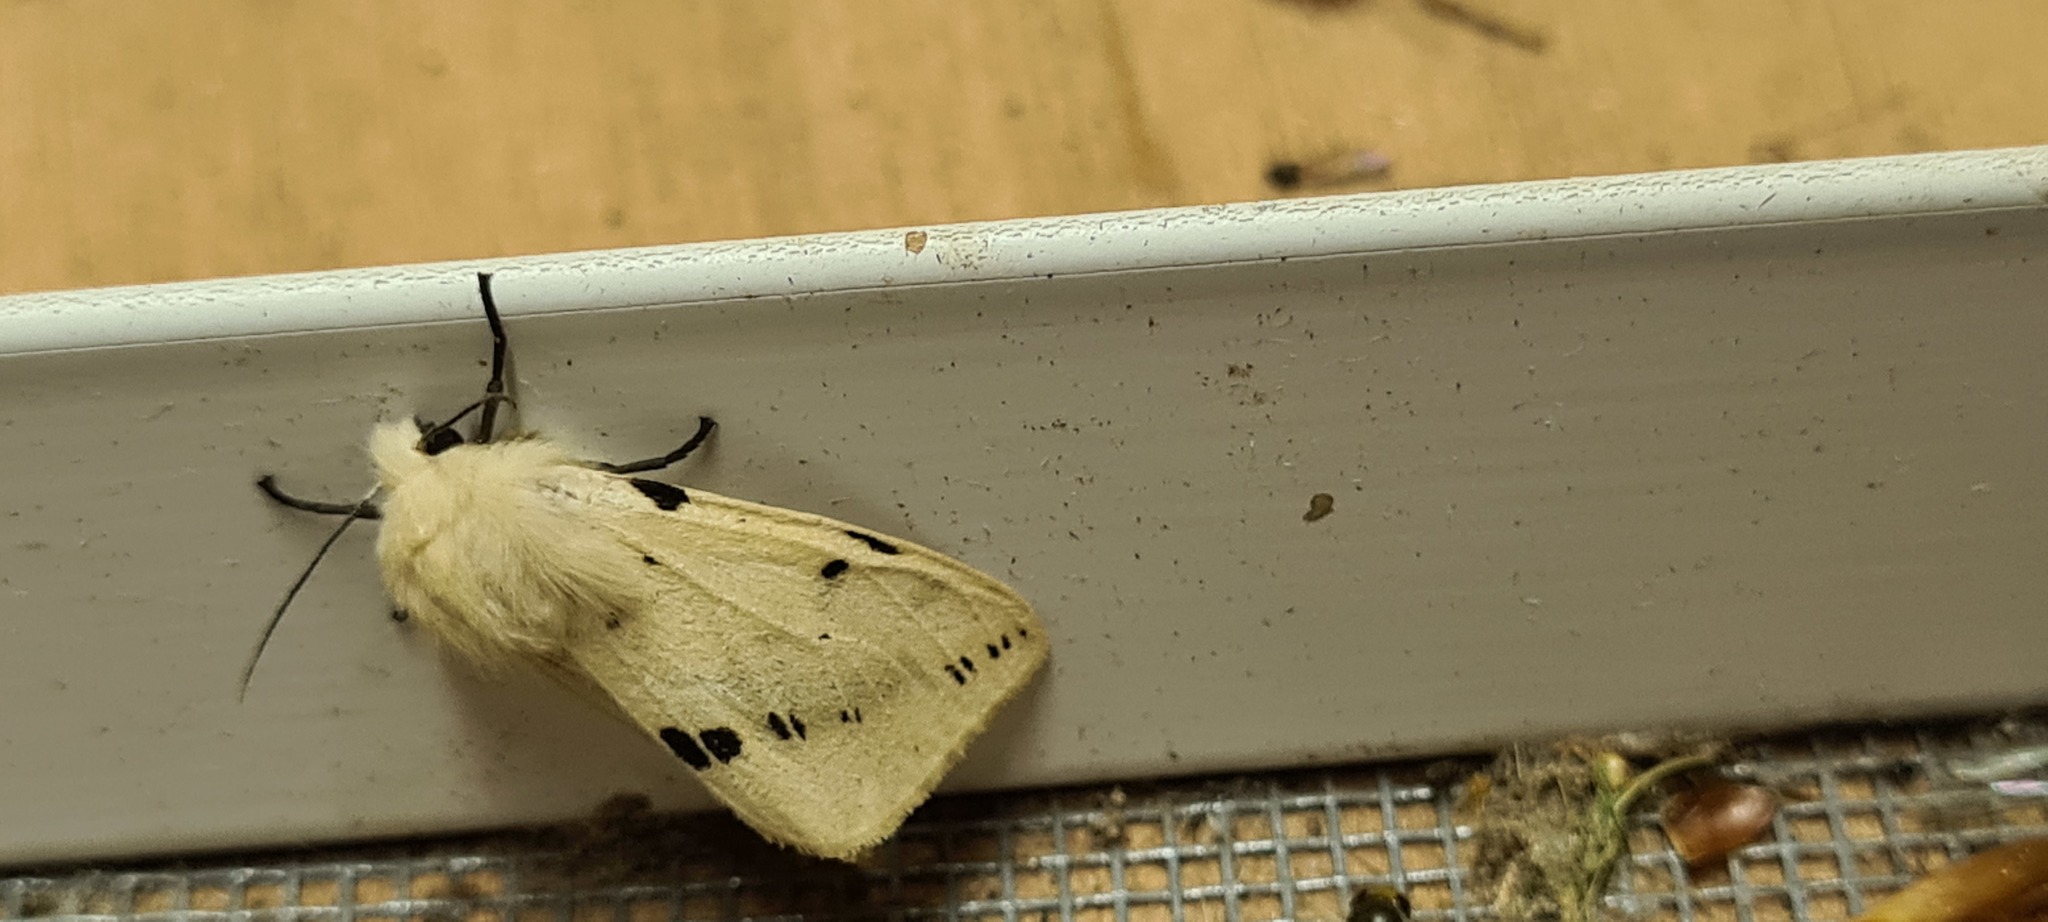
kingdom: Animalia
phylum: Arthropoda
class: Insecta
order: Lepidoptera
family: Erebidae
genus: Spilarctia
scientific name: Spilarctia lutea
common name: Buff ermine
